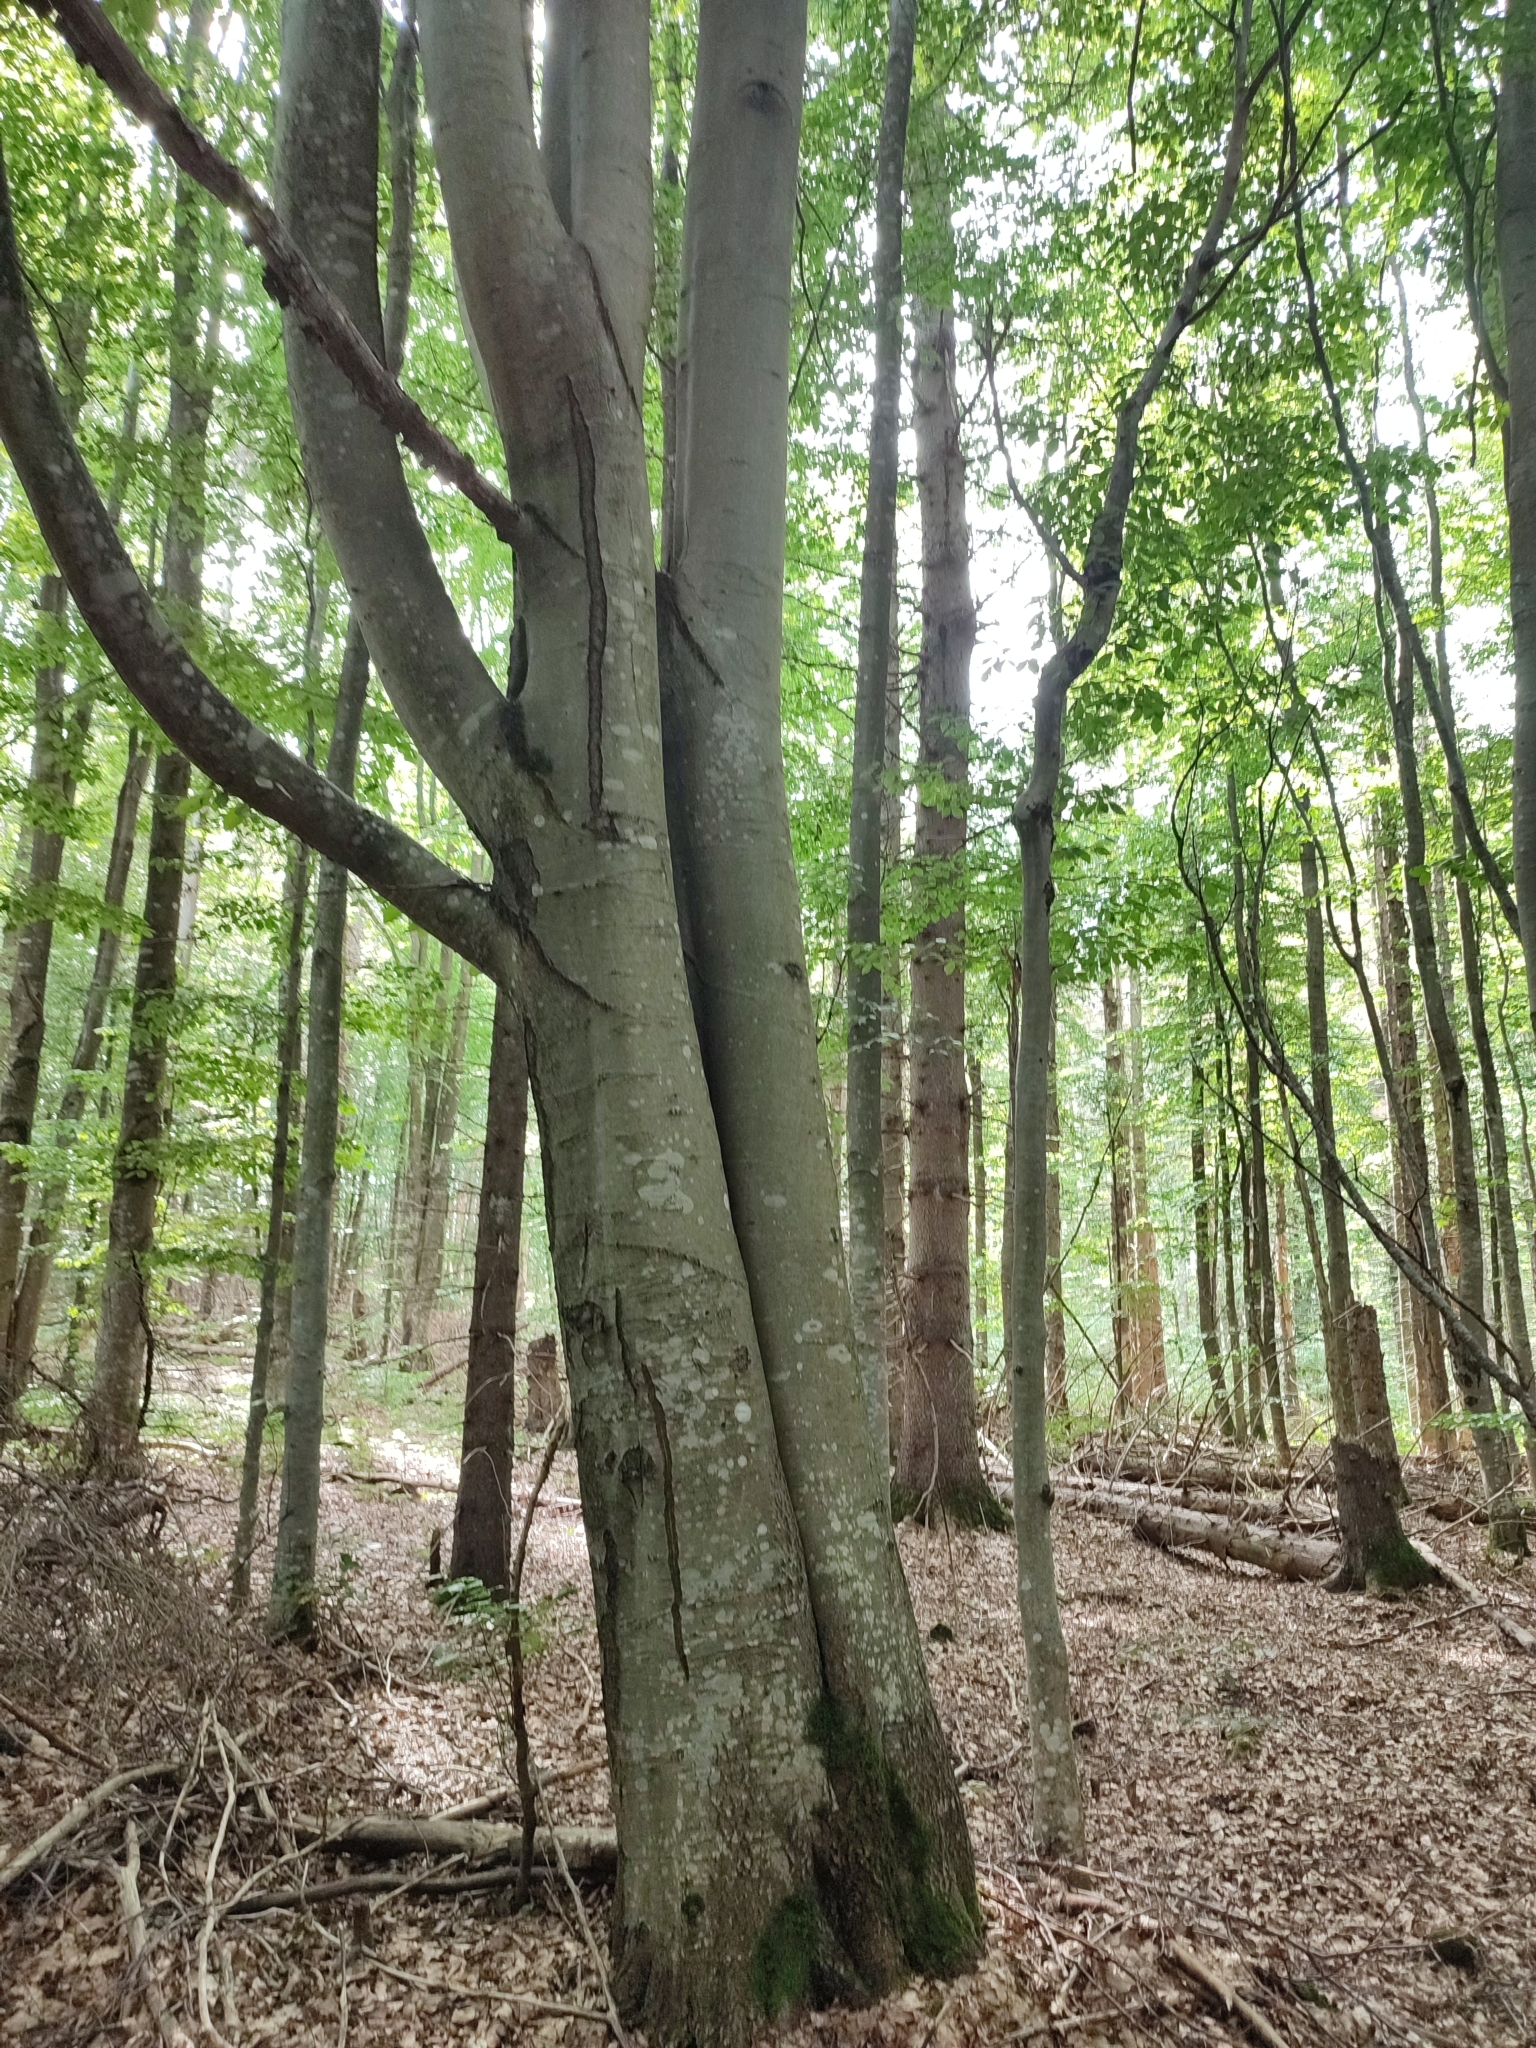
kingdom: Plantae
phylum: Tracheophyta
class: Magnoliopsida
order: Fagales
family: Fagaceae
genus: Fagus
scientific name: Fagus sylvatica
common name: Beech
